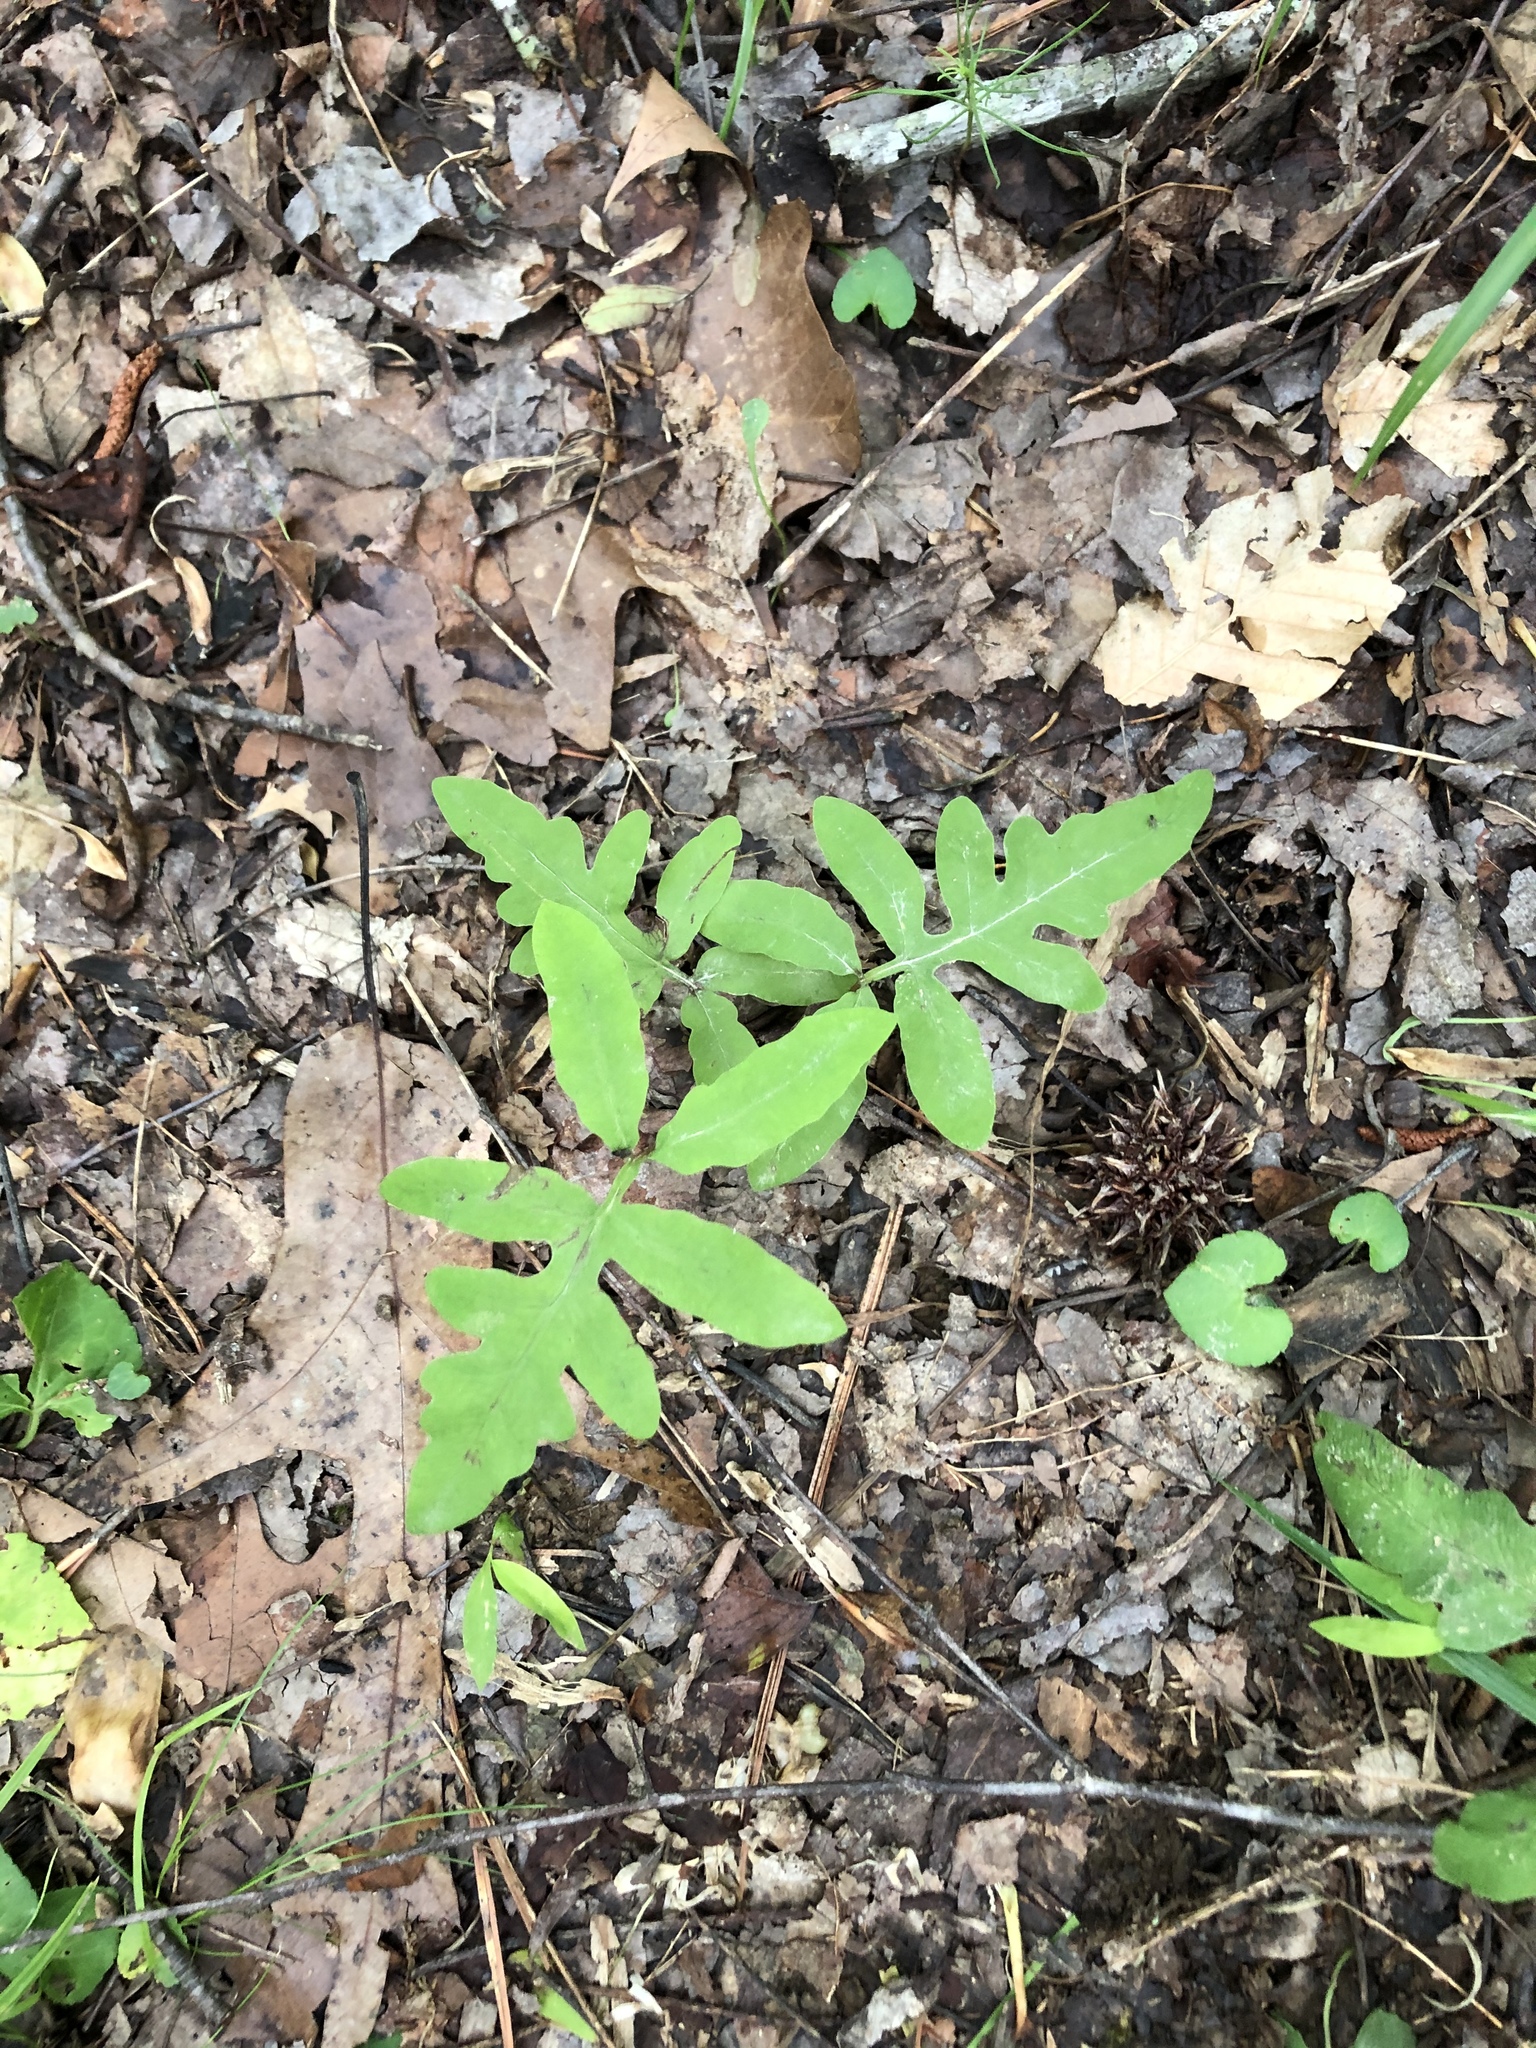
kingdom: Plantae
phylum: Tracheophyta
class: Polypodiopsida
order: Polypodiales
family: Onocleaceae
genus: Onoclea
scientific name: Onoclea sensibilis
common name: Sensitive fern
